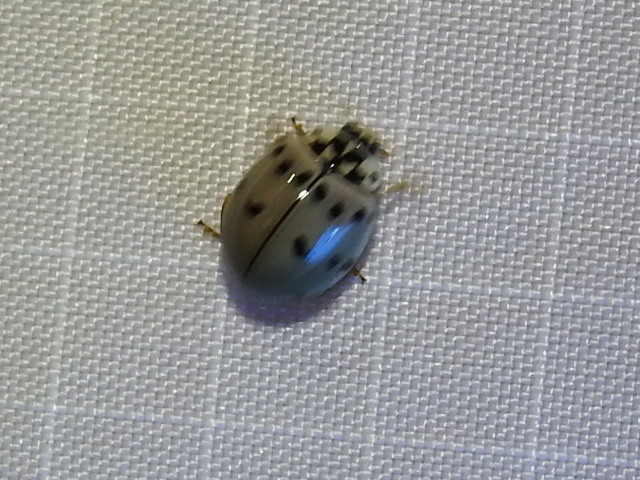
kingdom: Animalia
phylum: Arthropoda
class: Insecta
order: Coleoptera
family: Coccinellidae
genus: Olla
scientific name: Olla v-nigrum
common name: Ashy gray lady beetle
